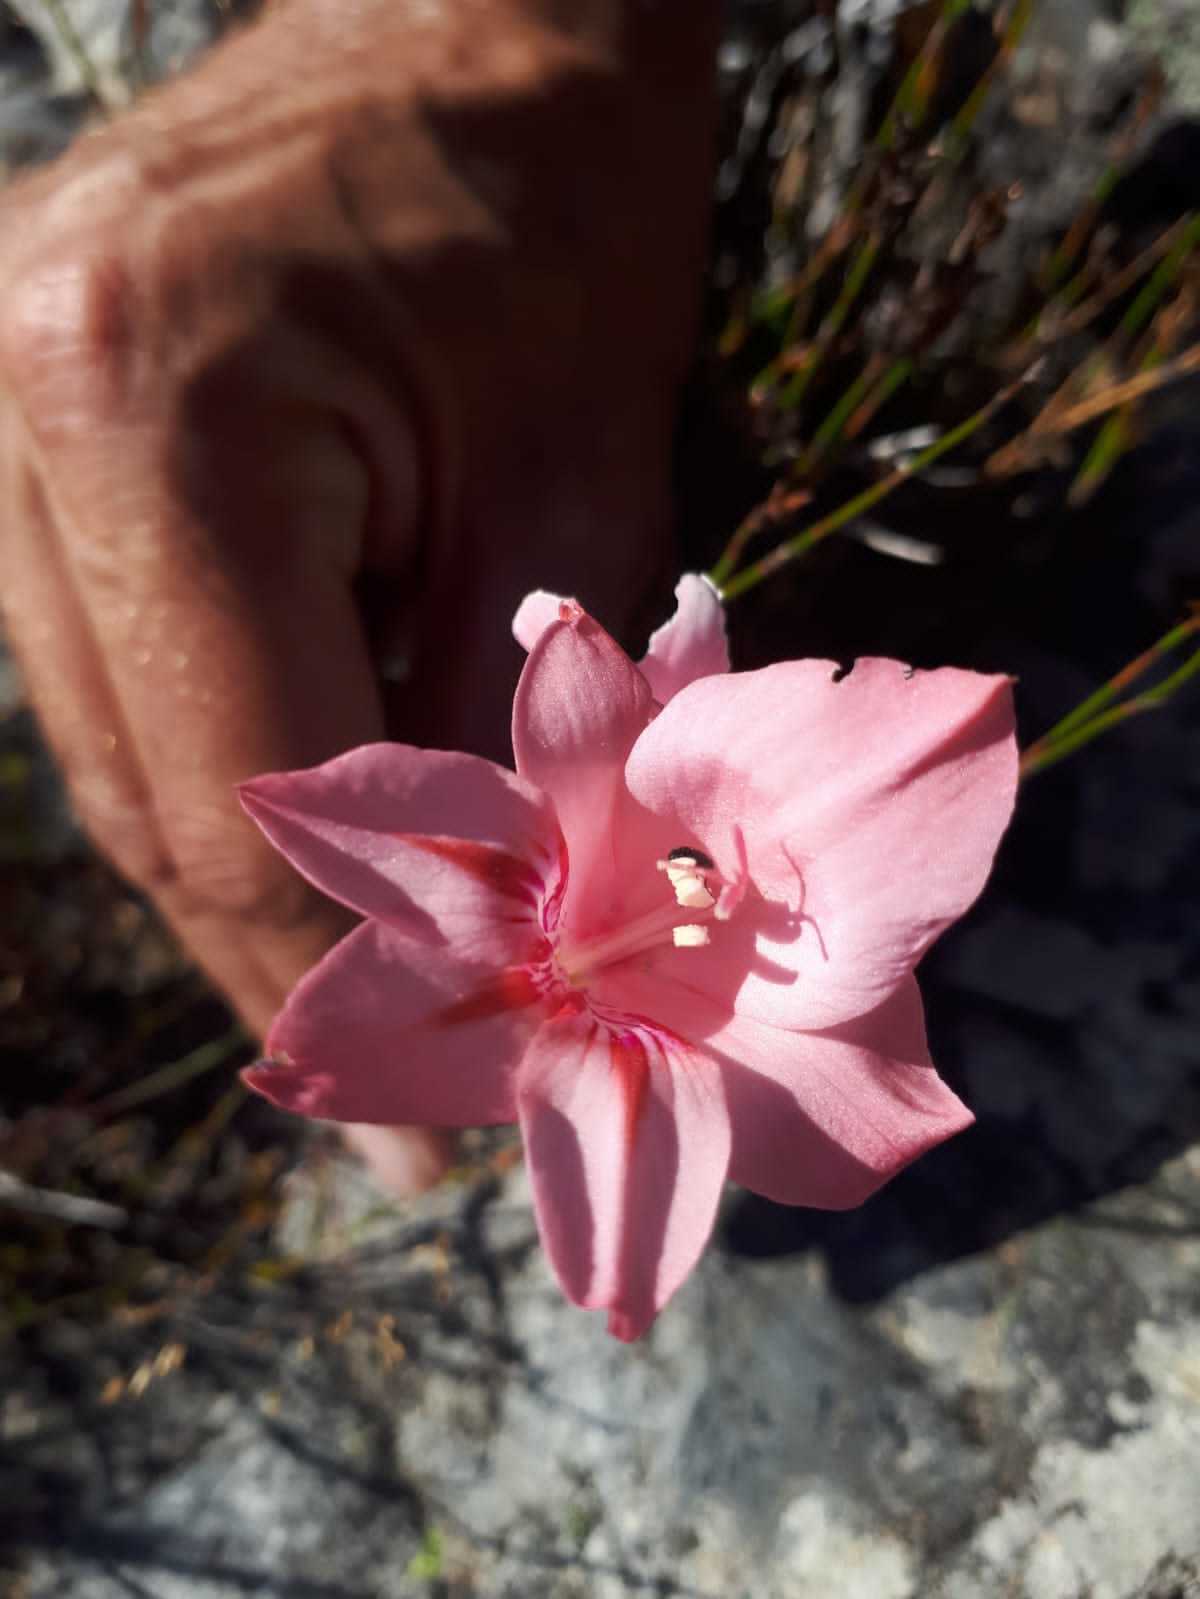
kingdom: Plantae
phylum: Tracheophyta
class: Liliopsida
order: Asparagales
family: Iridaceae
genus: Gladiolus
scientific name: Gladiolus rhodanthus
